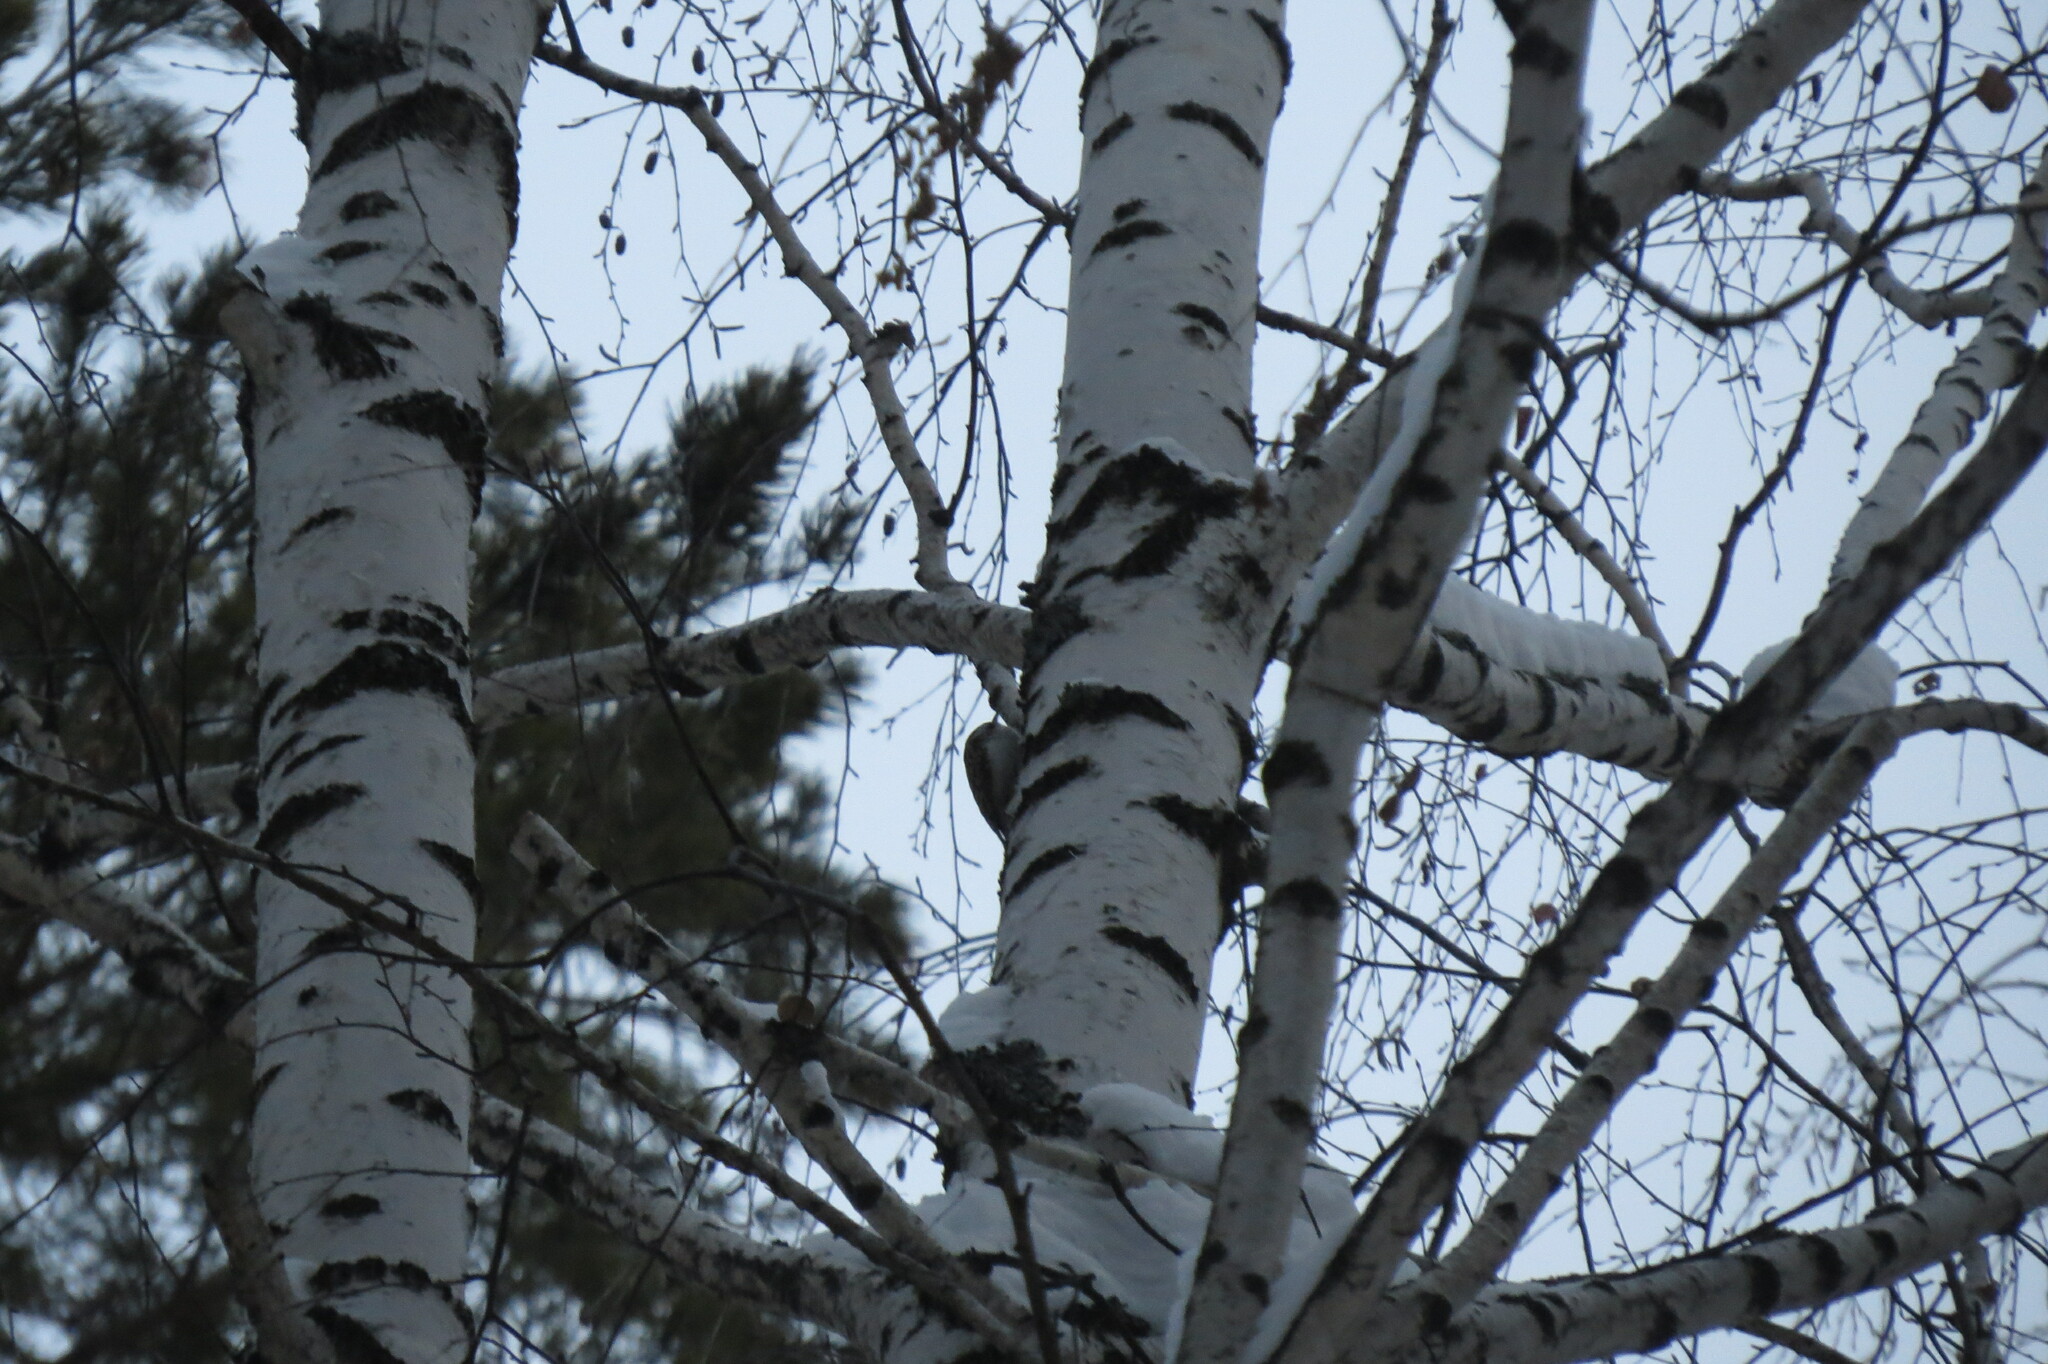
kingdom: Animalia
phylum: Chordata
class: Aves
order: Passeriformes
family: Certhiidae
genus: Certhia
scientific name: Certhia familiaris
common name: Eurasian treecreeper
